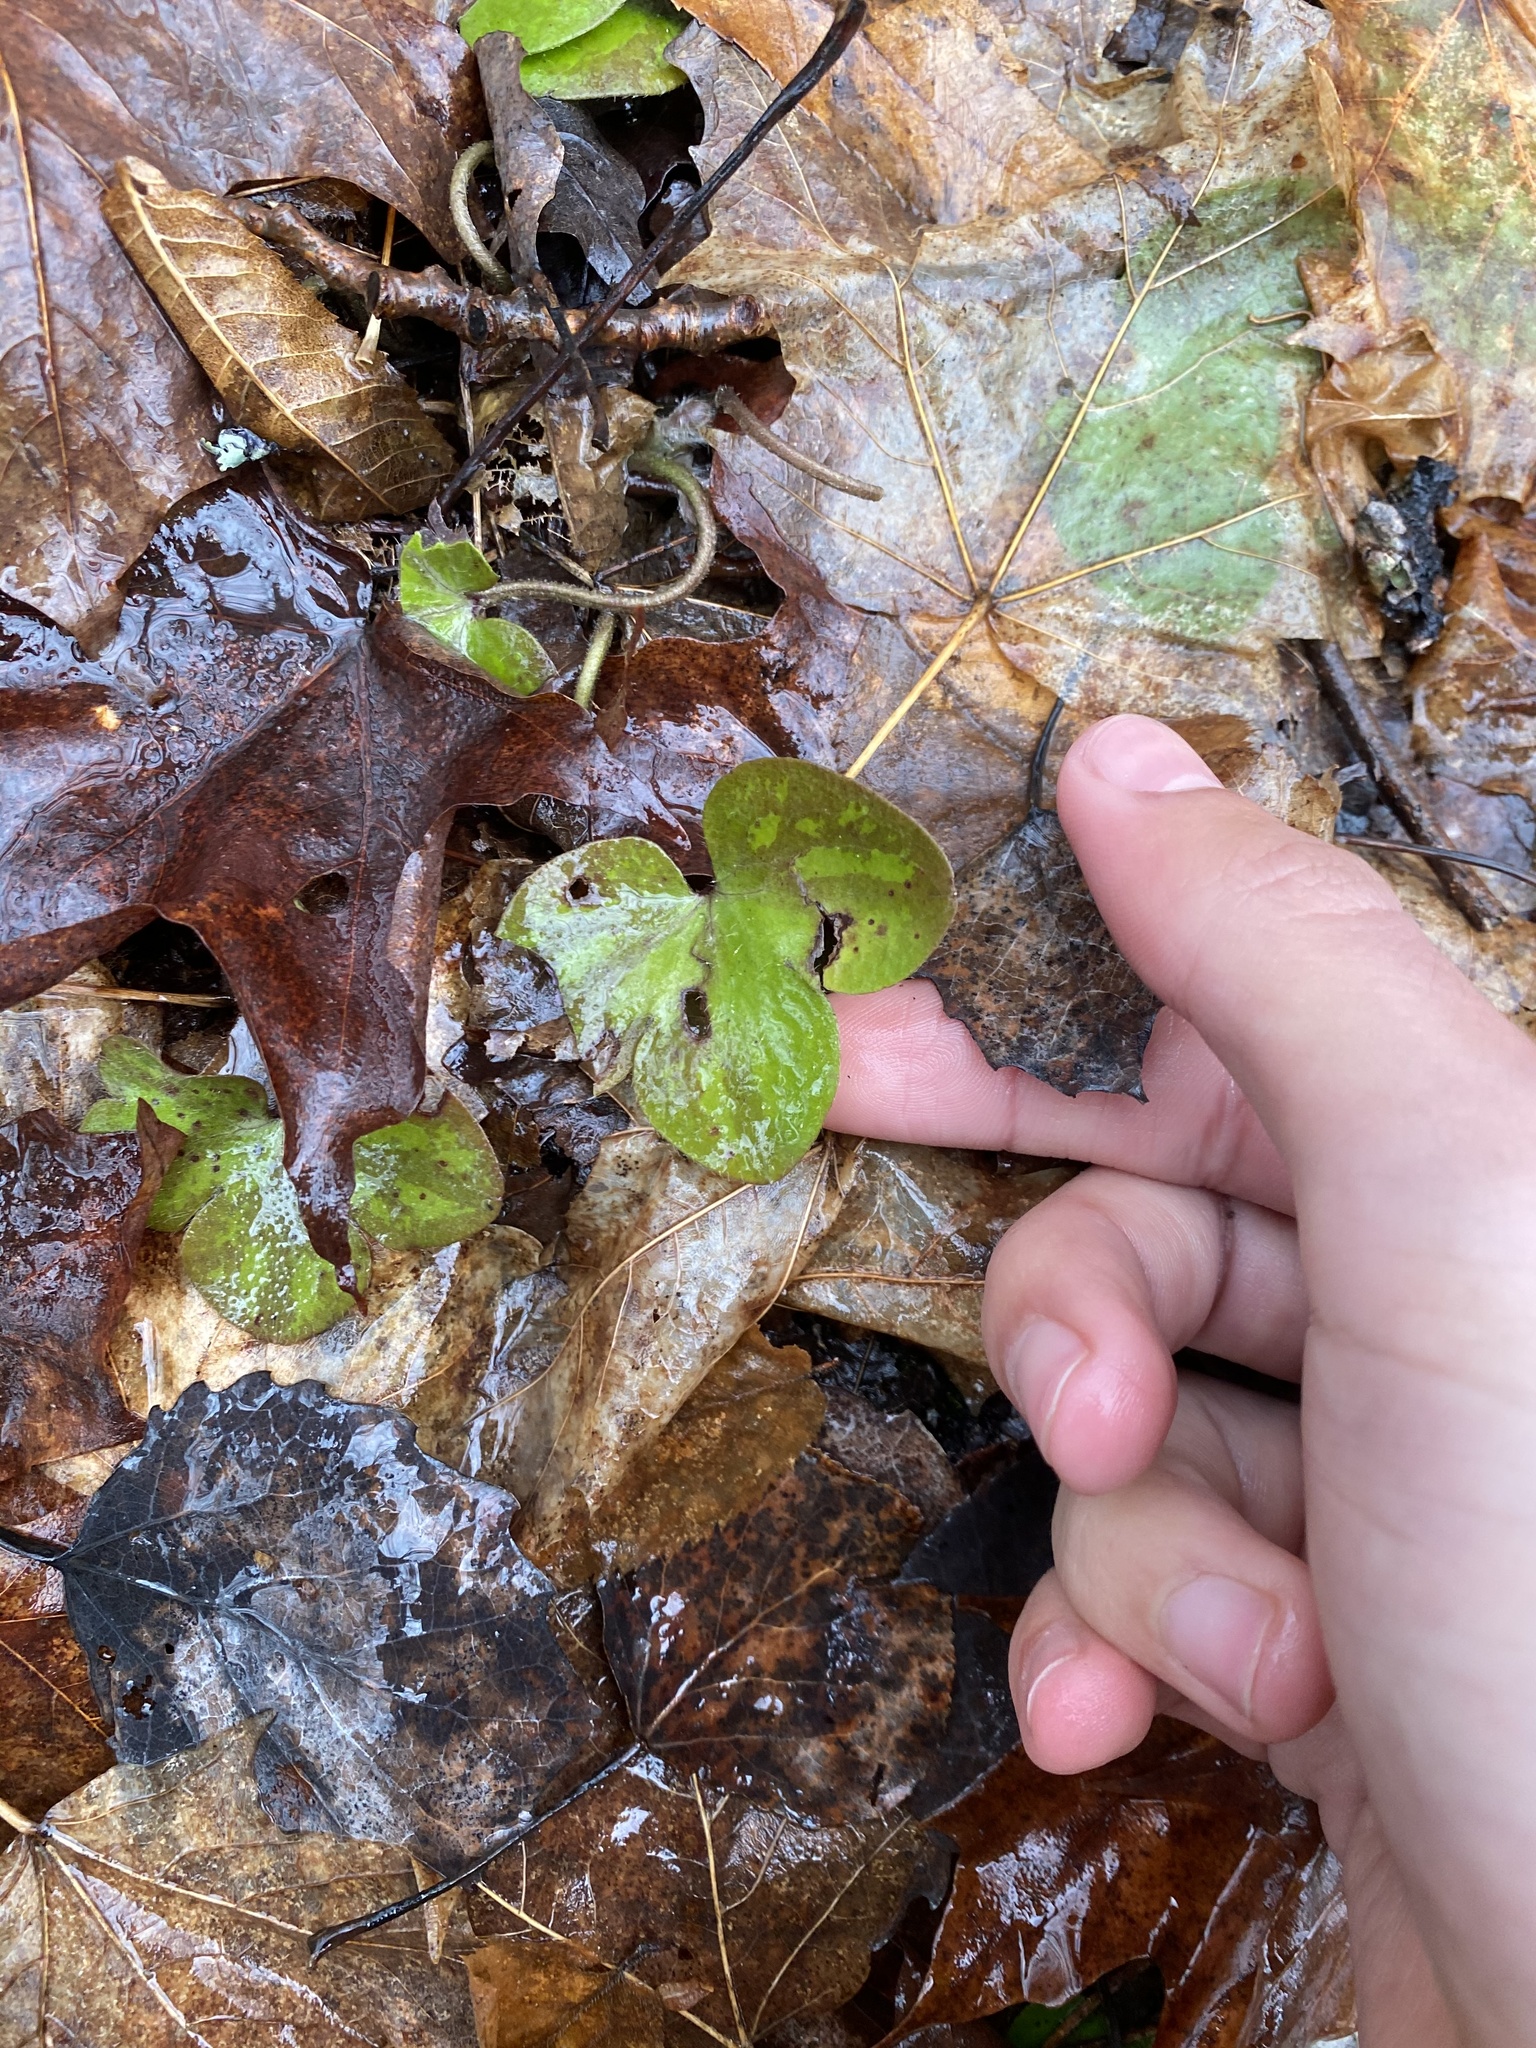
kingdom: Plantae
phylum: Tracheophyta
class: Magnoliopsida
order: Ranunculales
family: Ranunculaceae
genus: Hepatica
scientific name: Hepatica americana
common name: American hepatica
